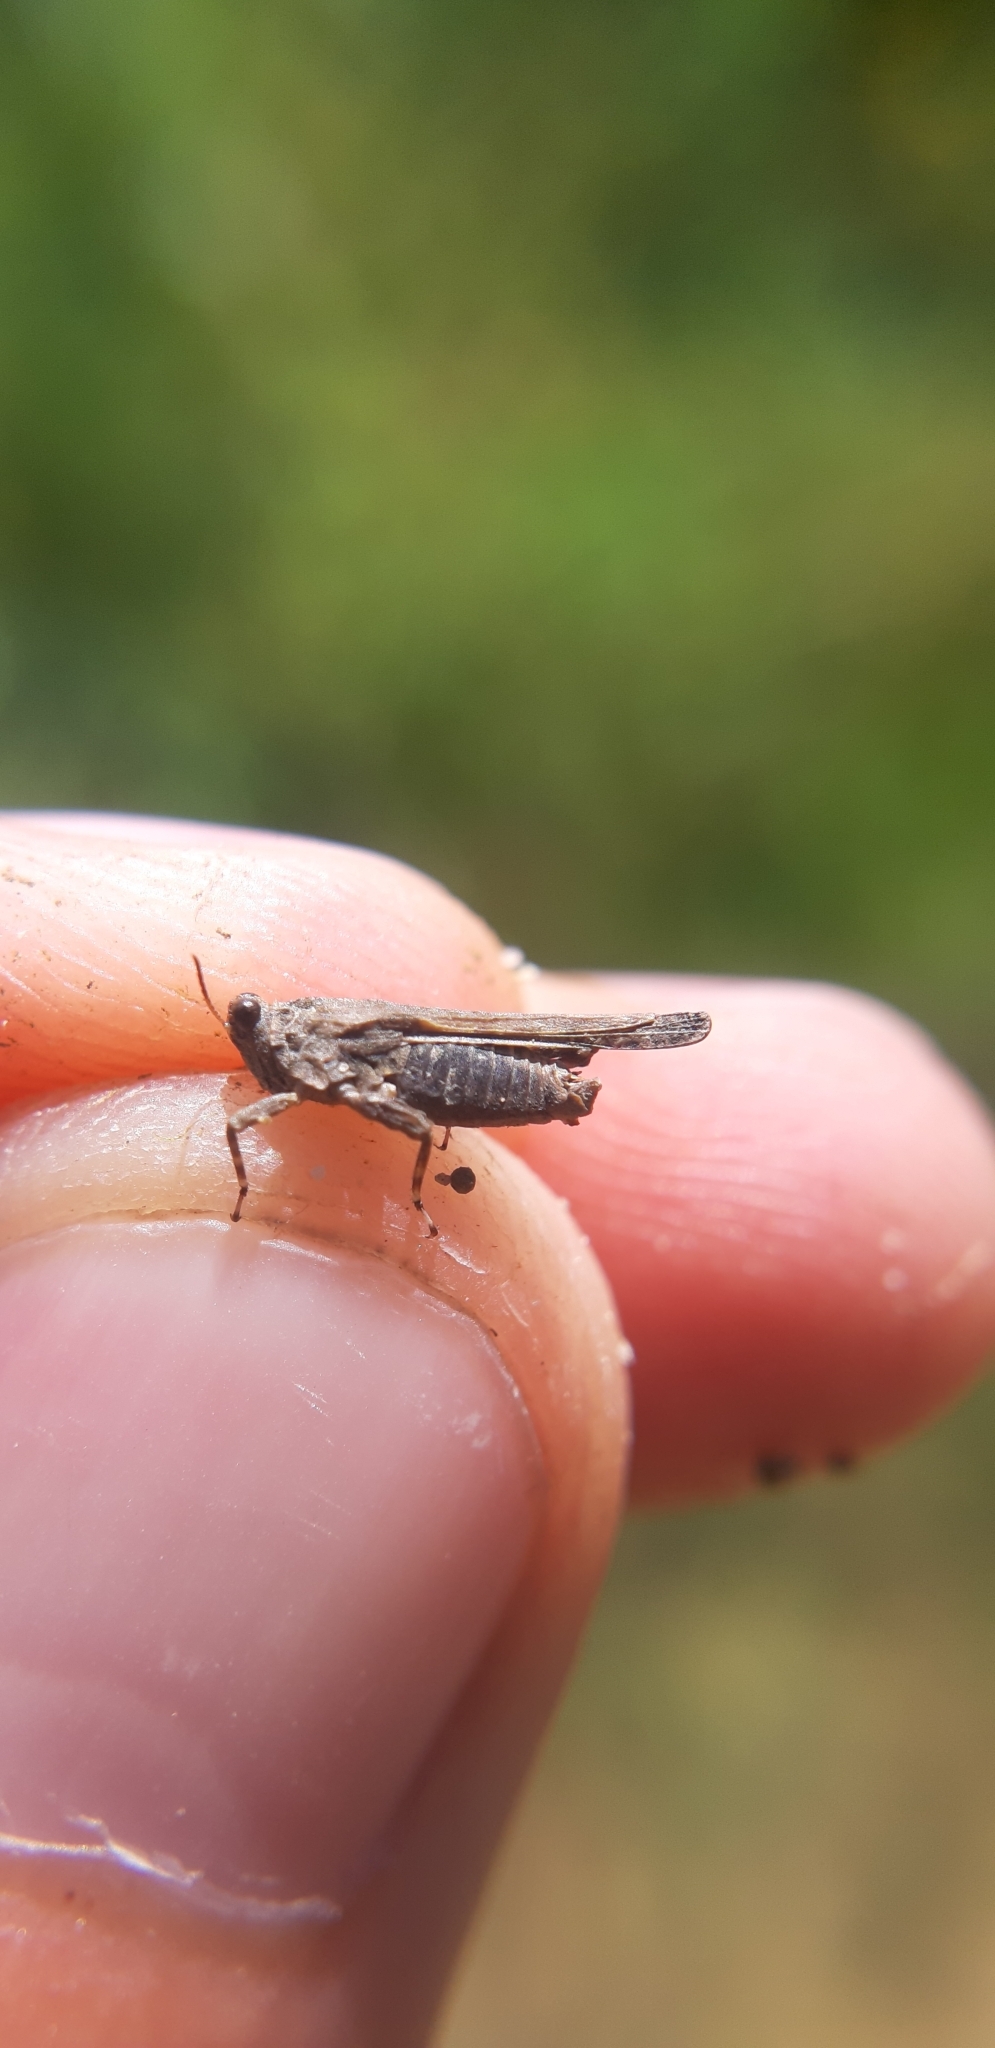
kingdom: Animalia
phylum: Arthropoda
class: Insecta
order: Orthoptera
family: Tetrigidae
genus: Paratettix
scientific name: Paratettix meridionalis
